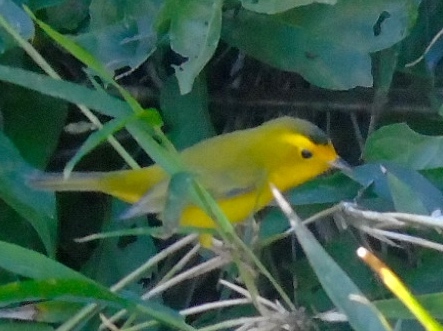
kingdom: Animalia
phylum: Chordata
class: Aves
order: Passeriformes
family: Parulidae
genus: Cardellina
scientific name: Cardellina pusilla
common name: Wilson's warbler
